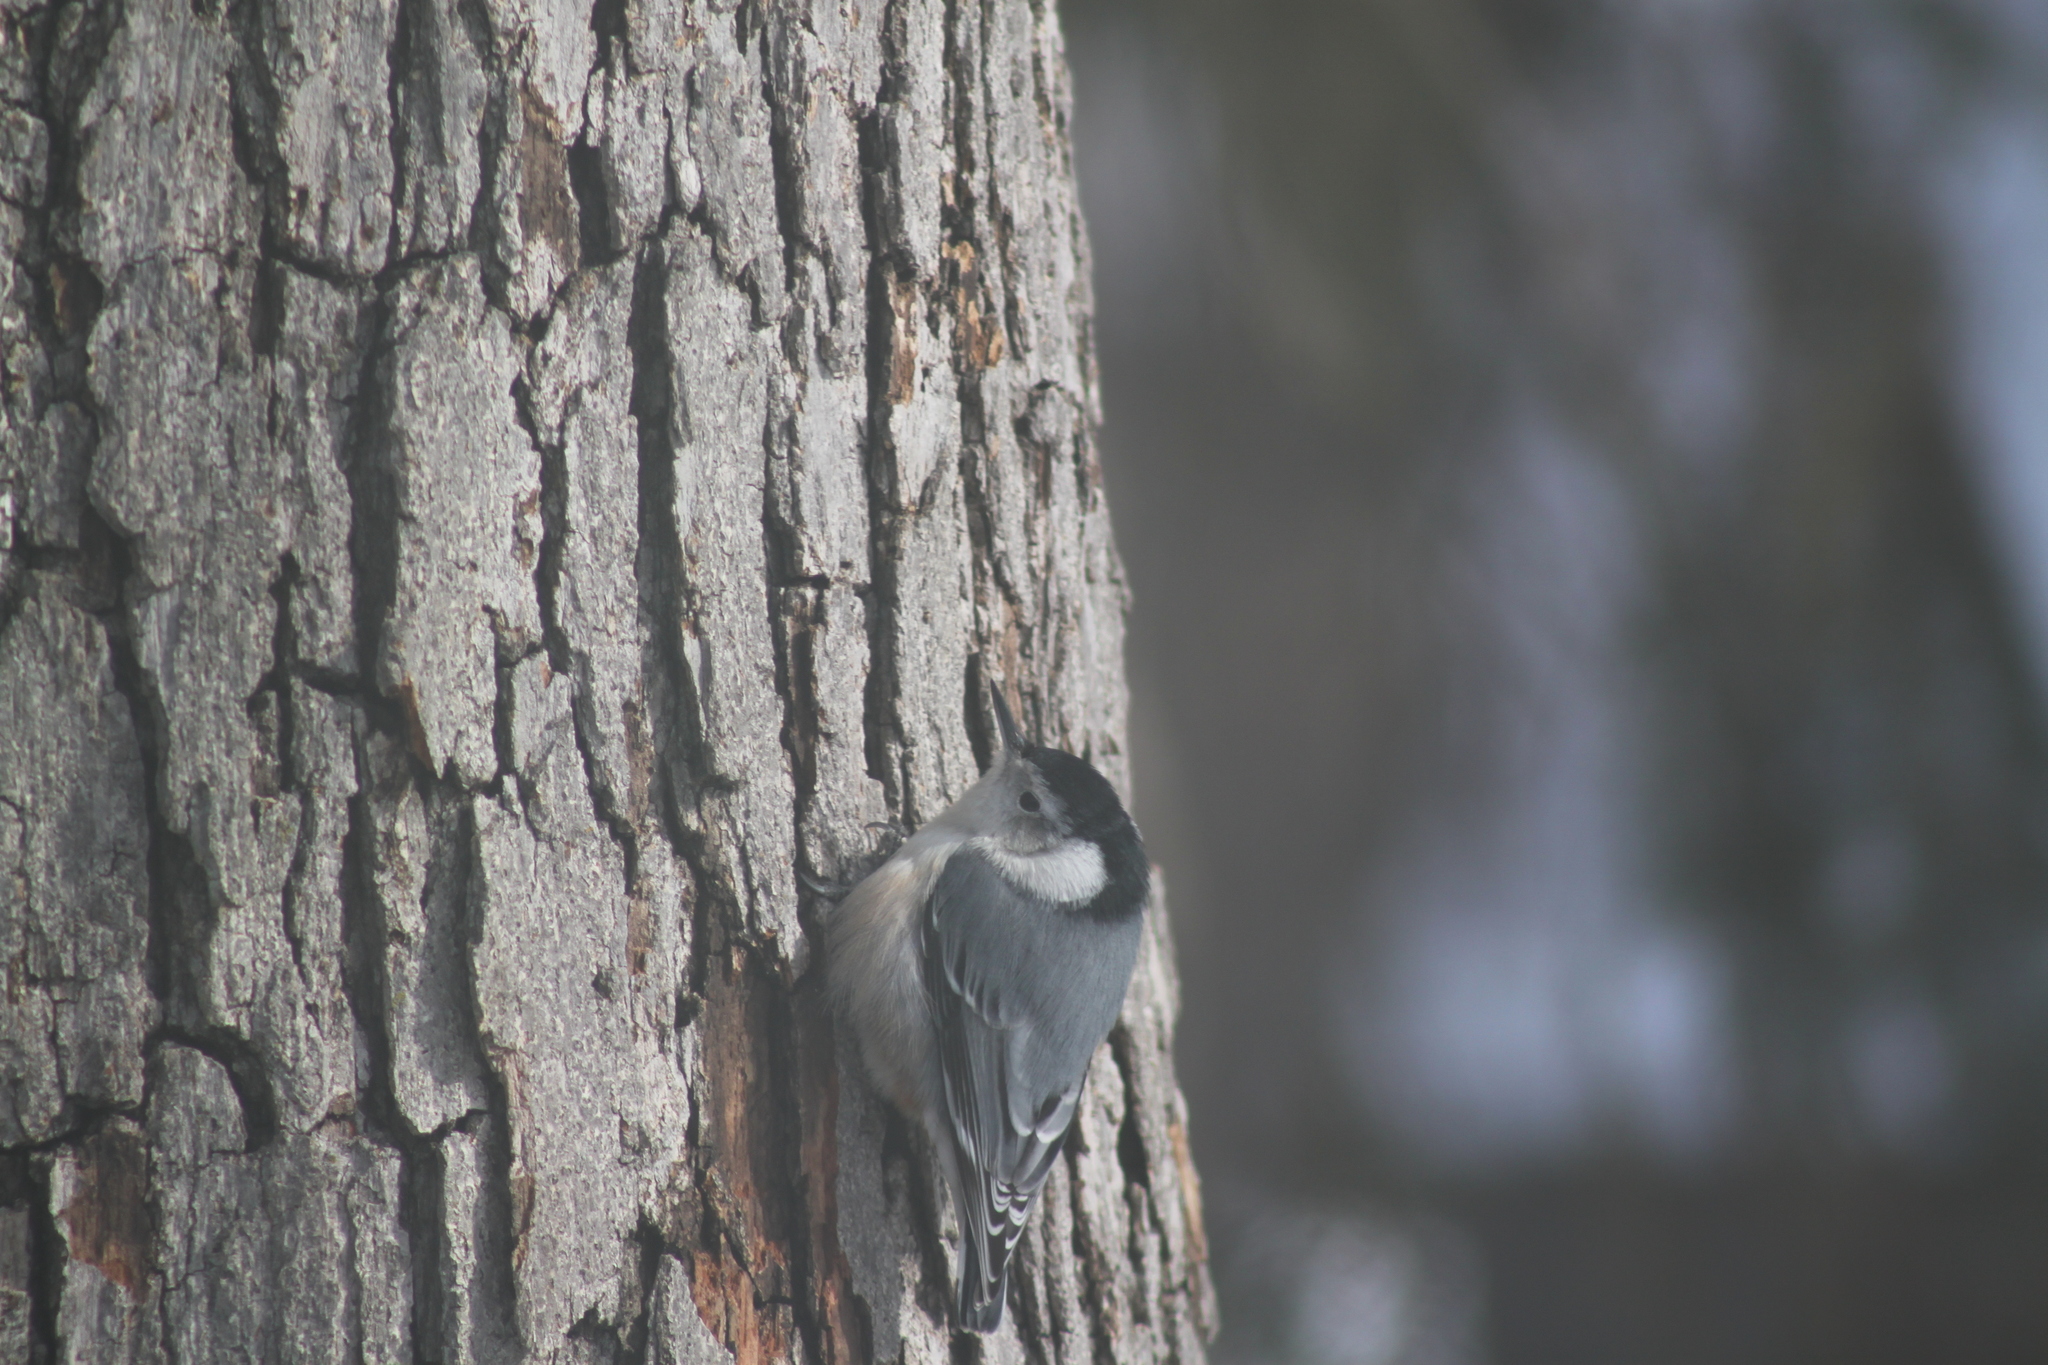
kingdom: Animalia
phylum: Chordata
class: Aves
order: Passeriformes
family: Sittidae
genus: Sitta
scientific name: Sitta carolinensis
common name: White-breasted nuthatch
